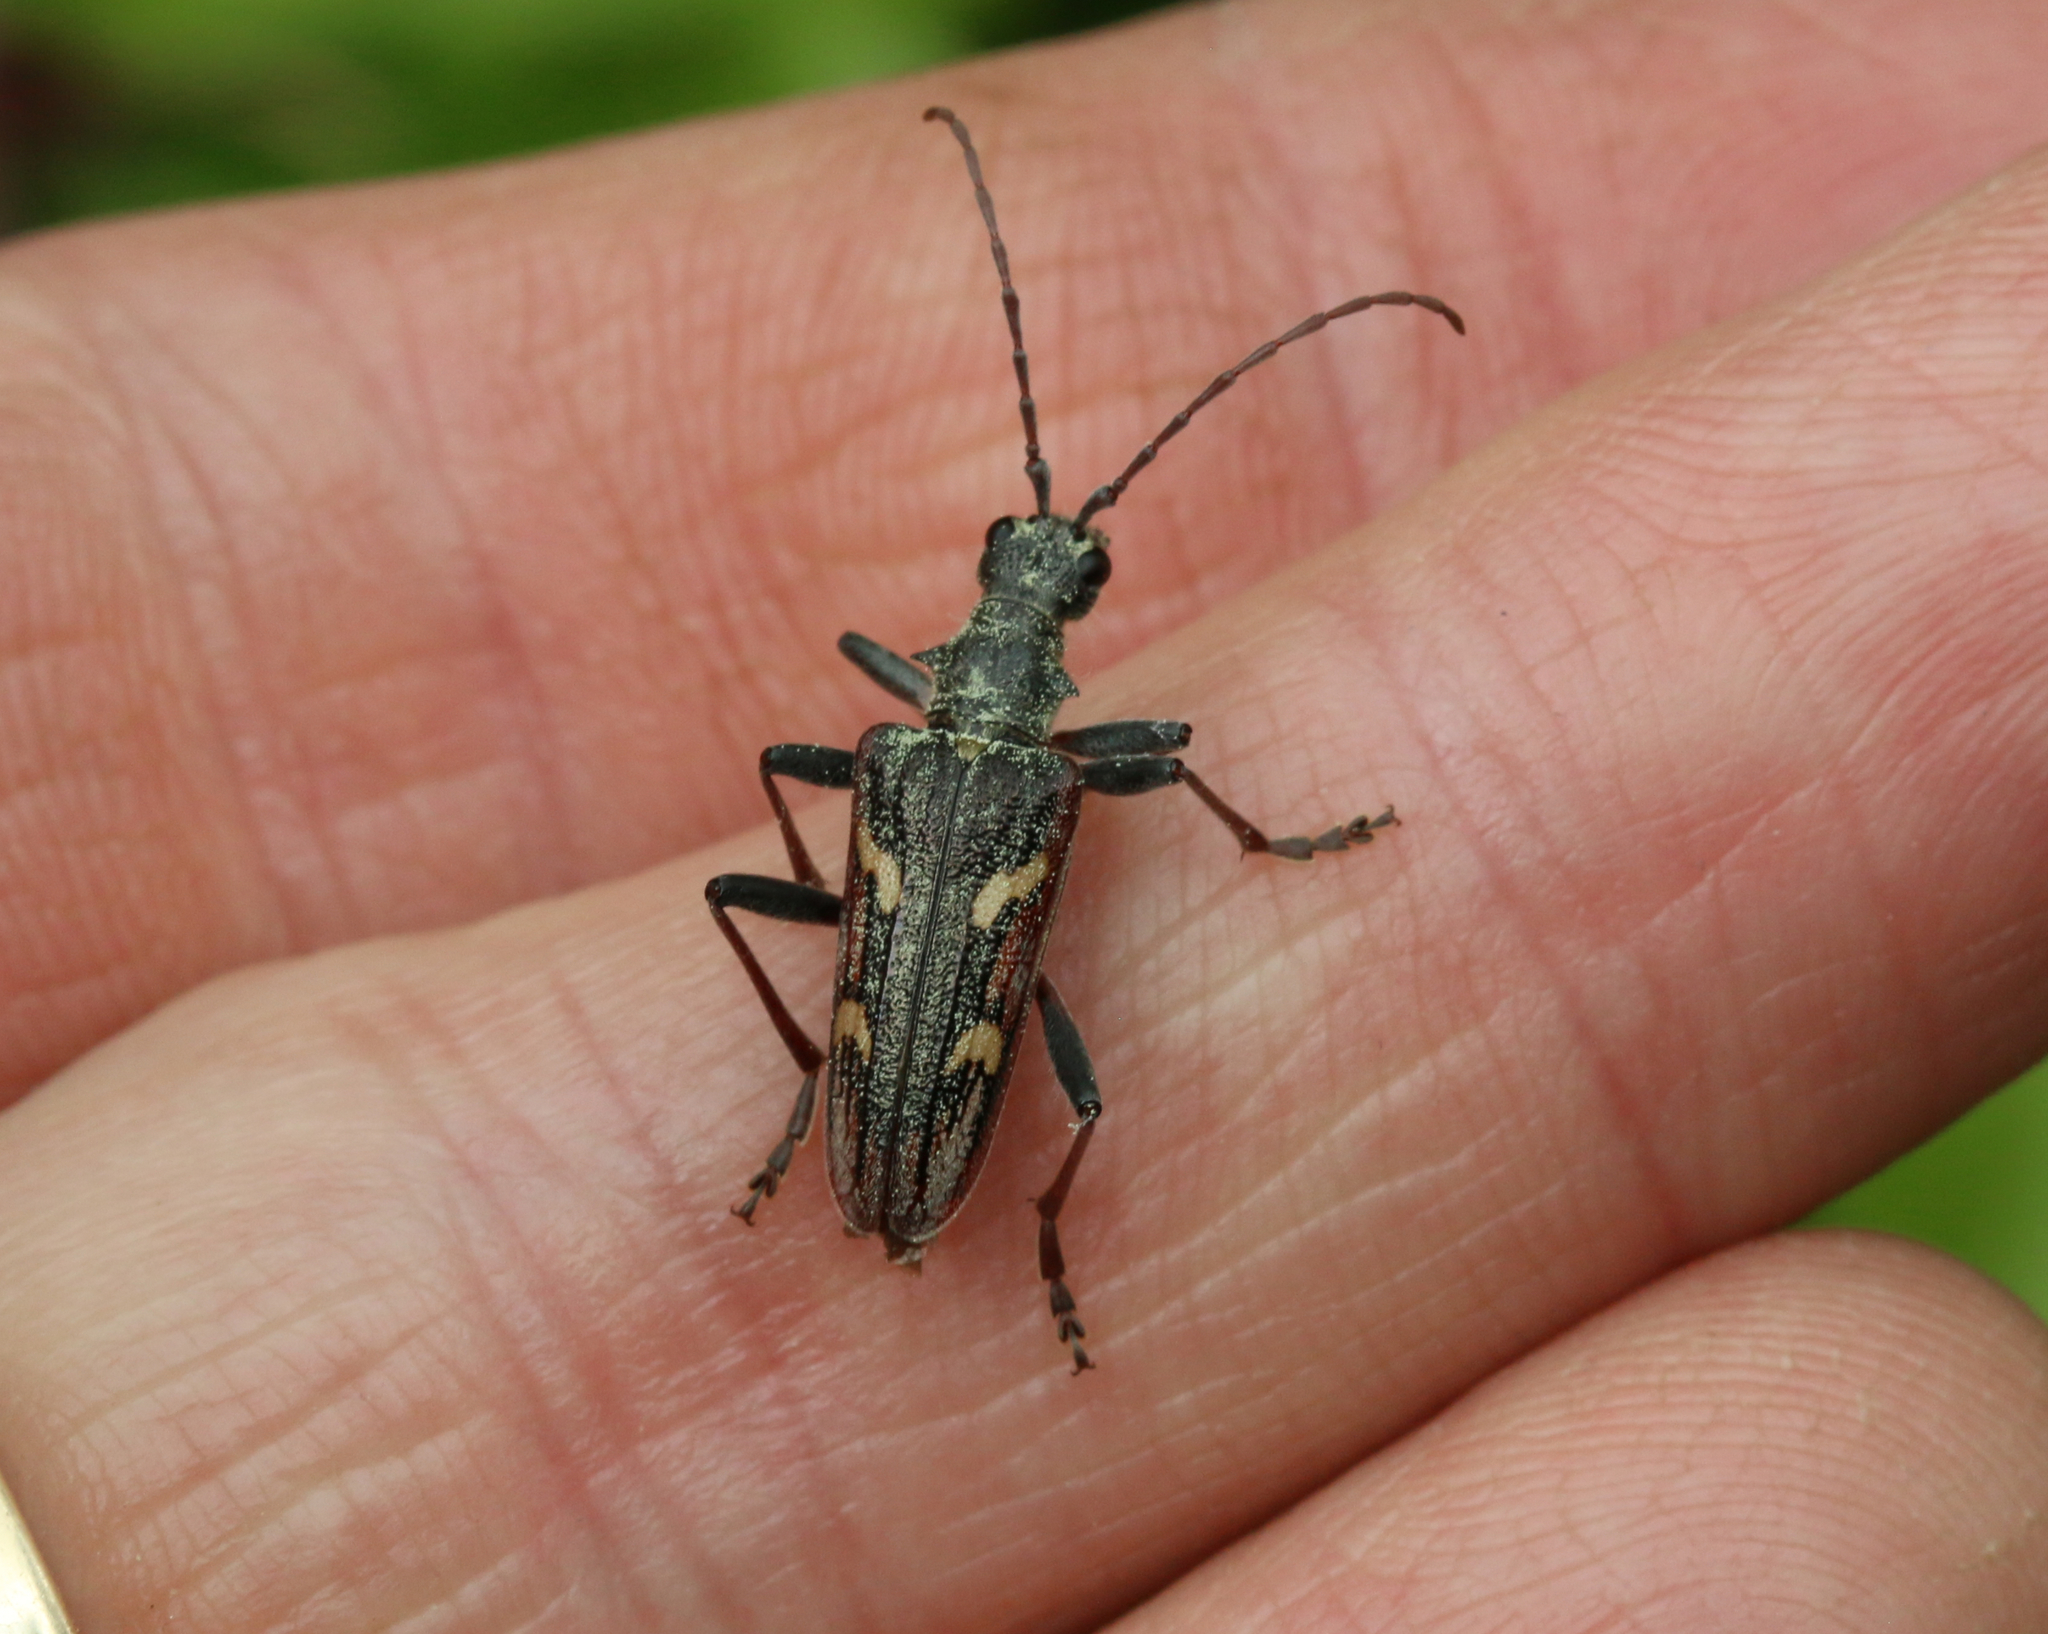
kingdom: Animalia
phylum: Arthropoda
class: Insecta
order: Coleoptera
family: Cerambycidae
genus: Rhagium
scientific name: Rhagium bifasciatum
